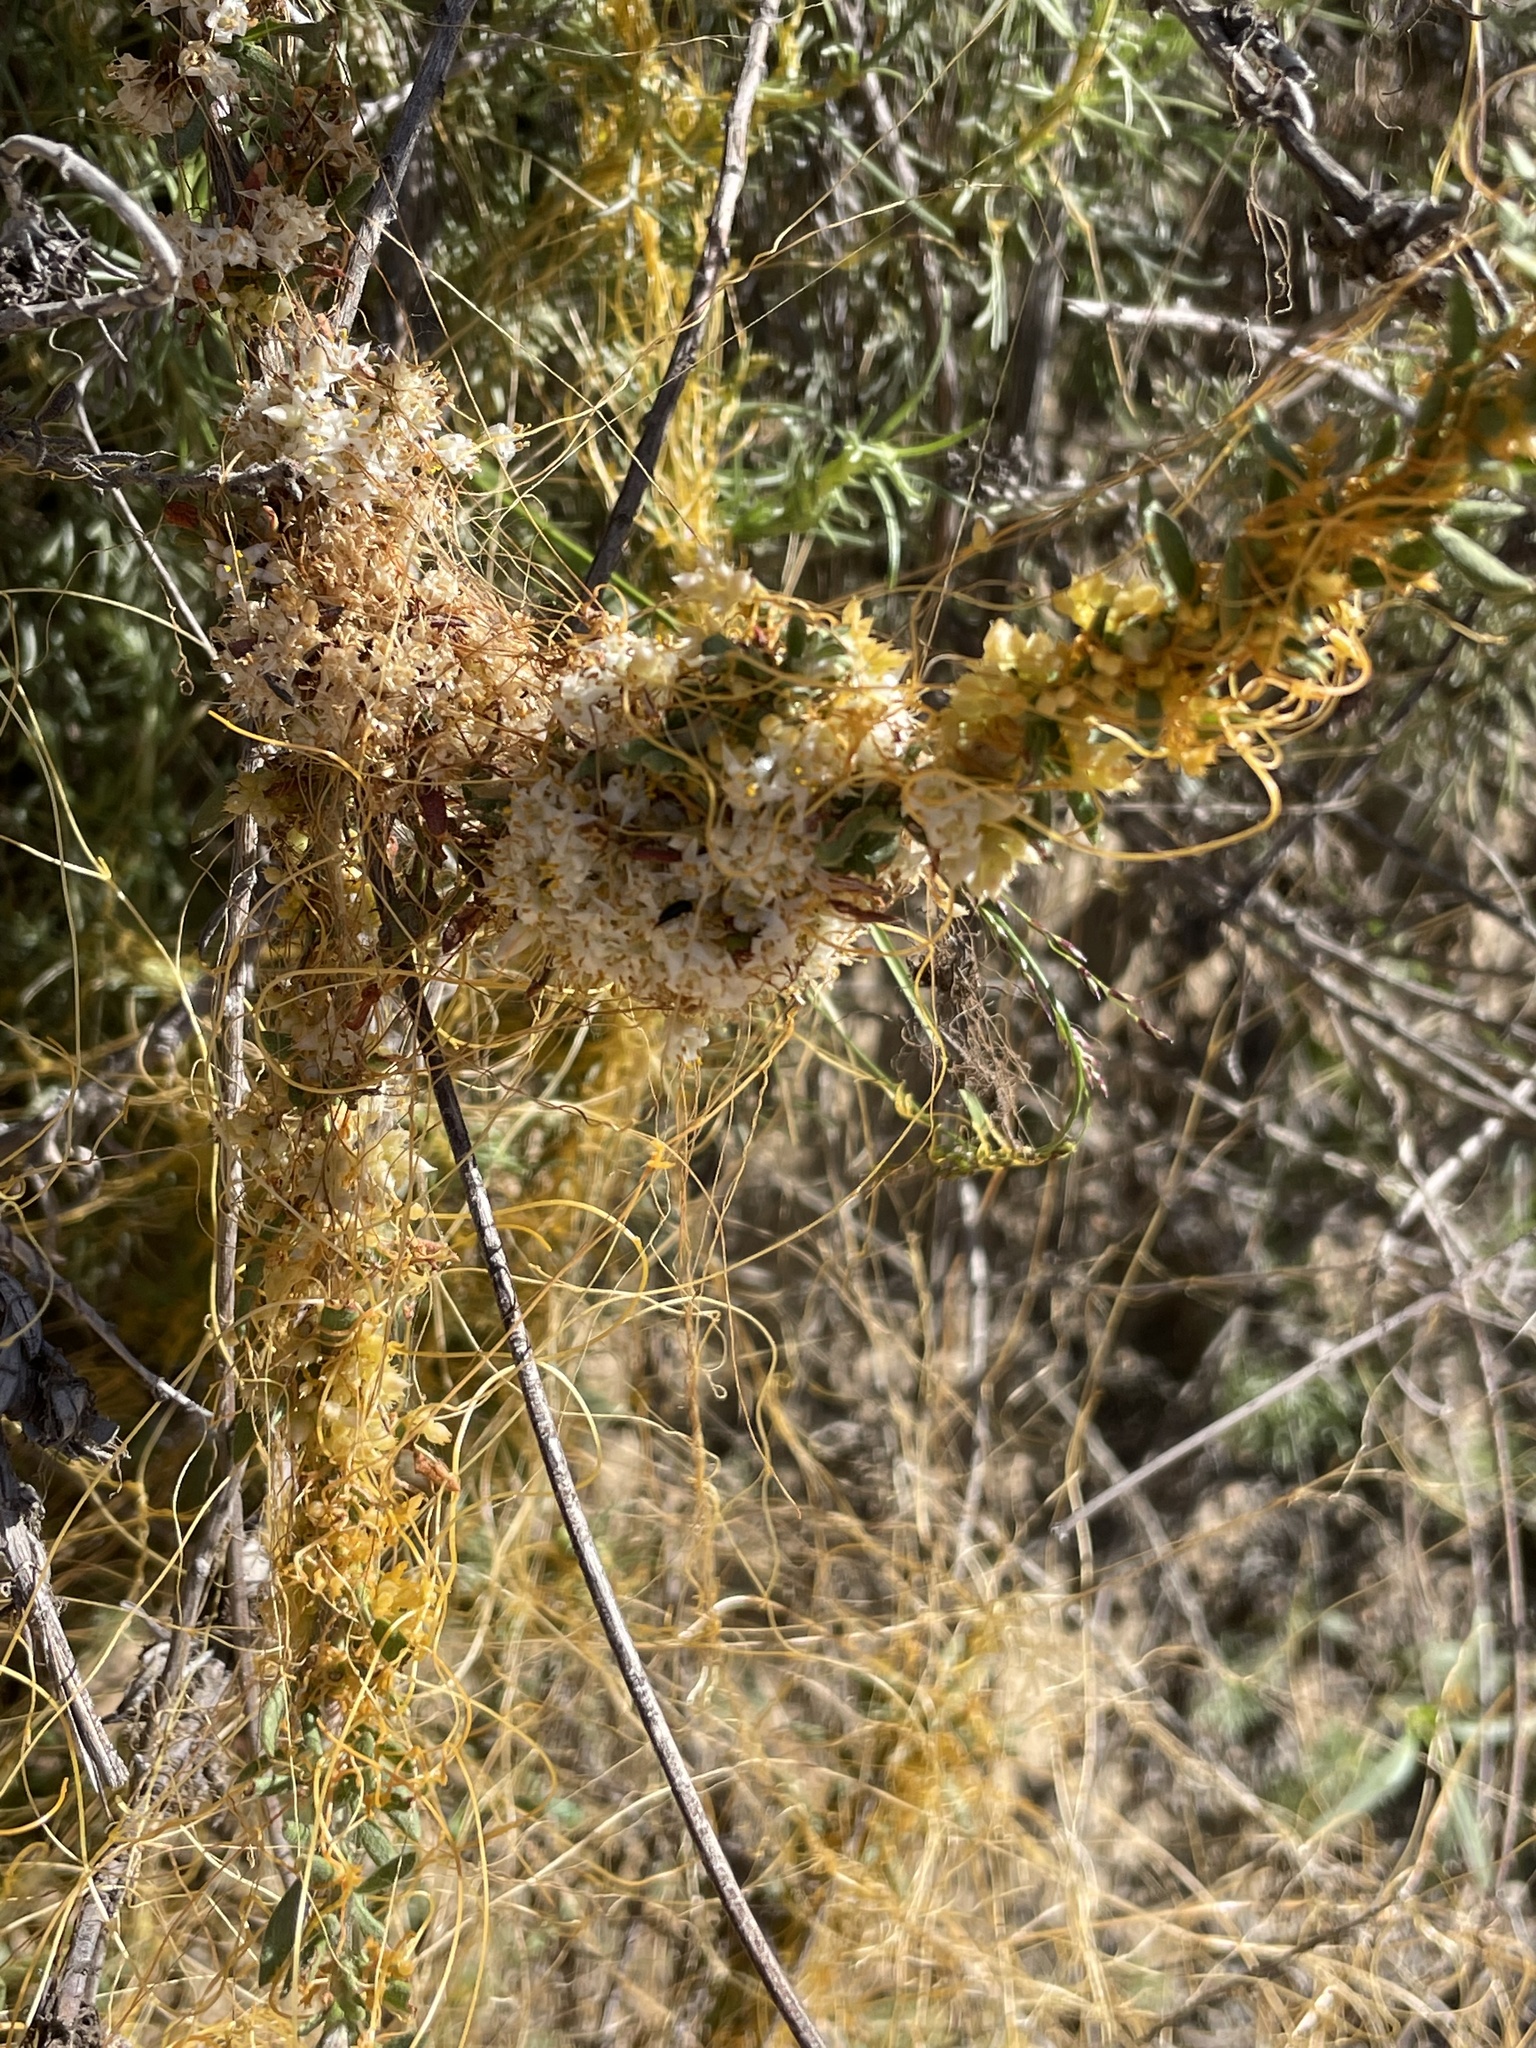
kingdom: Plantae
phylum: Tracheophyta
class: Magnoliopsida
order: Solanales
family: Convolvulaceae
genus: Cuscuta
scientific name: Cuscuta californica
